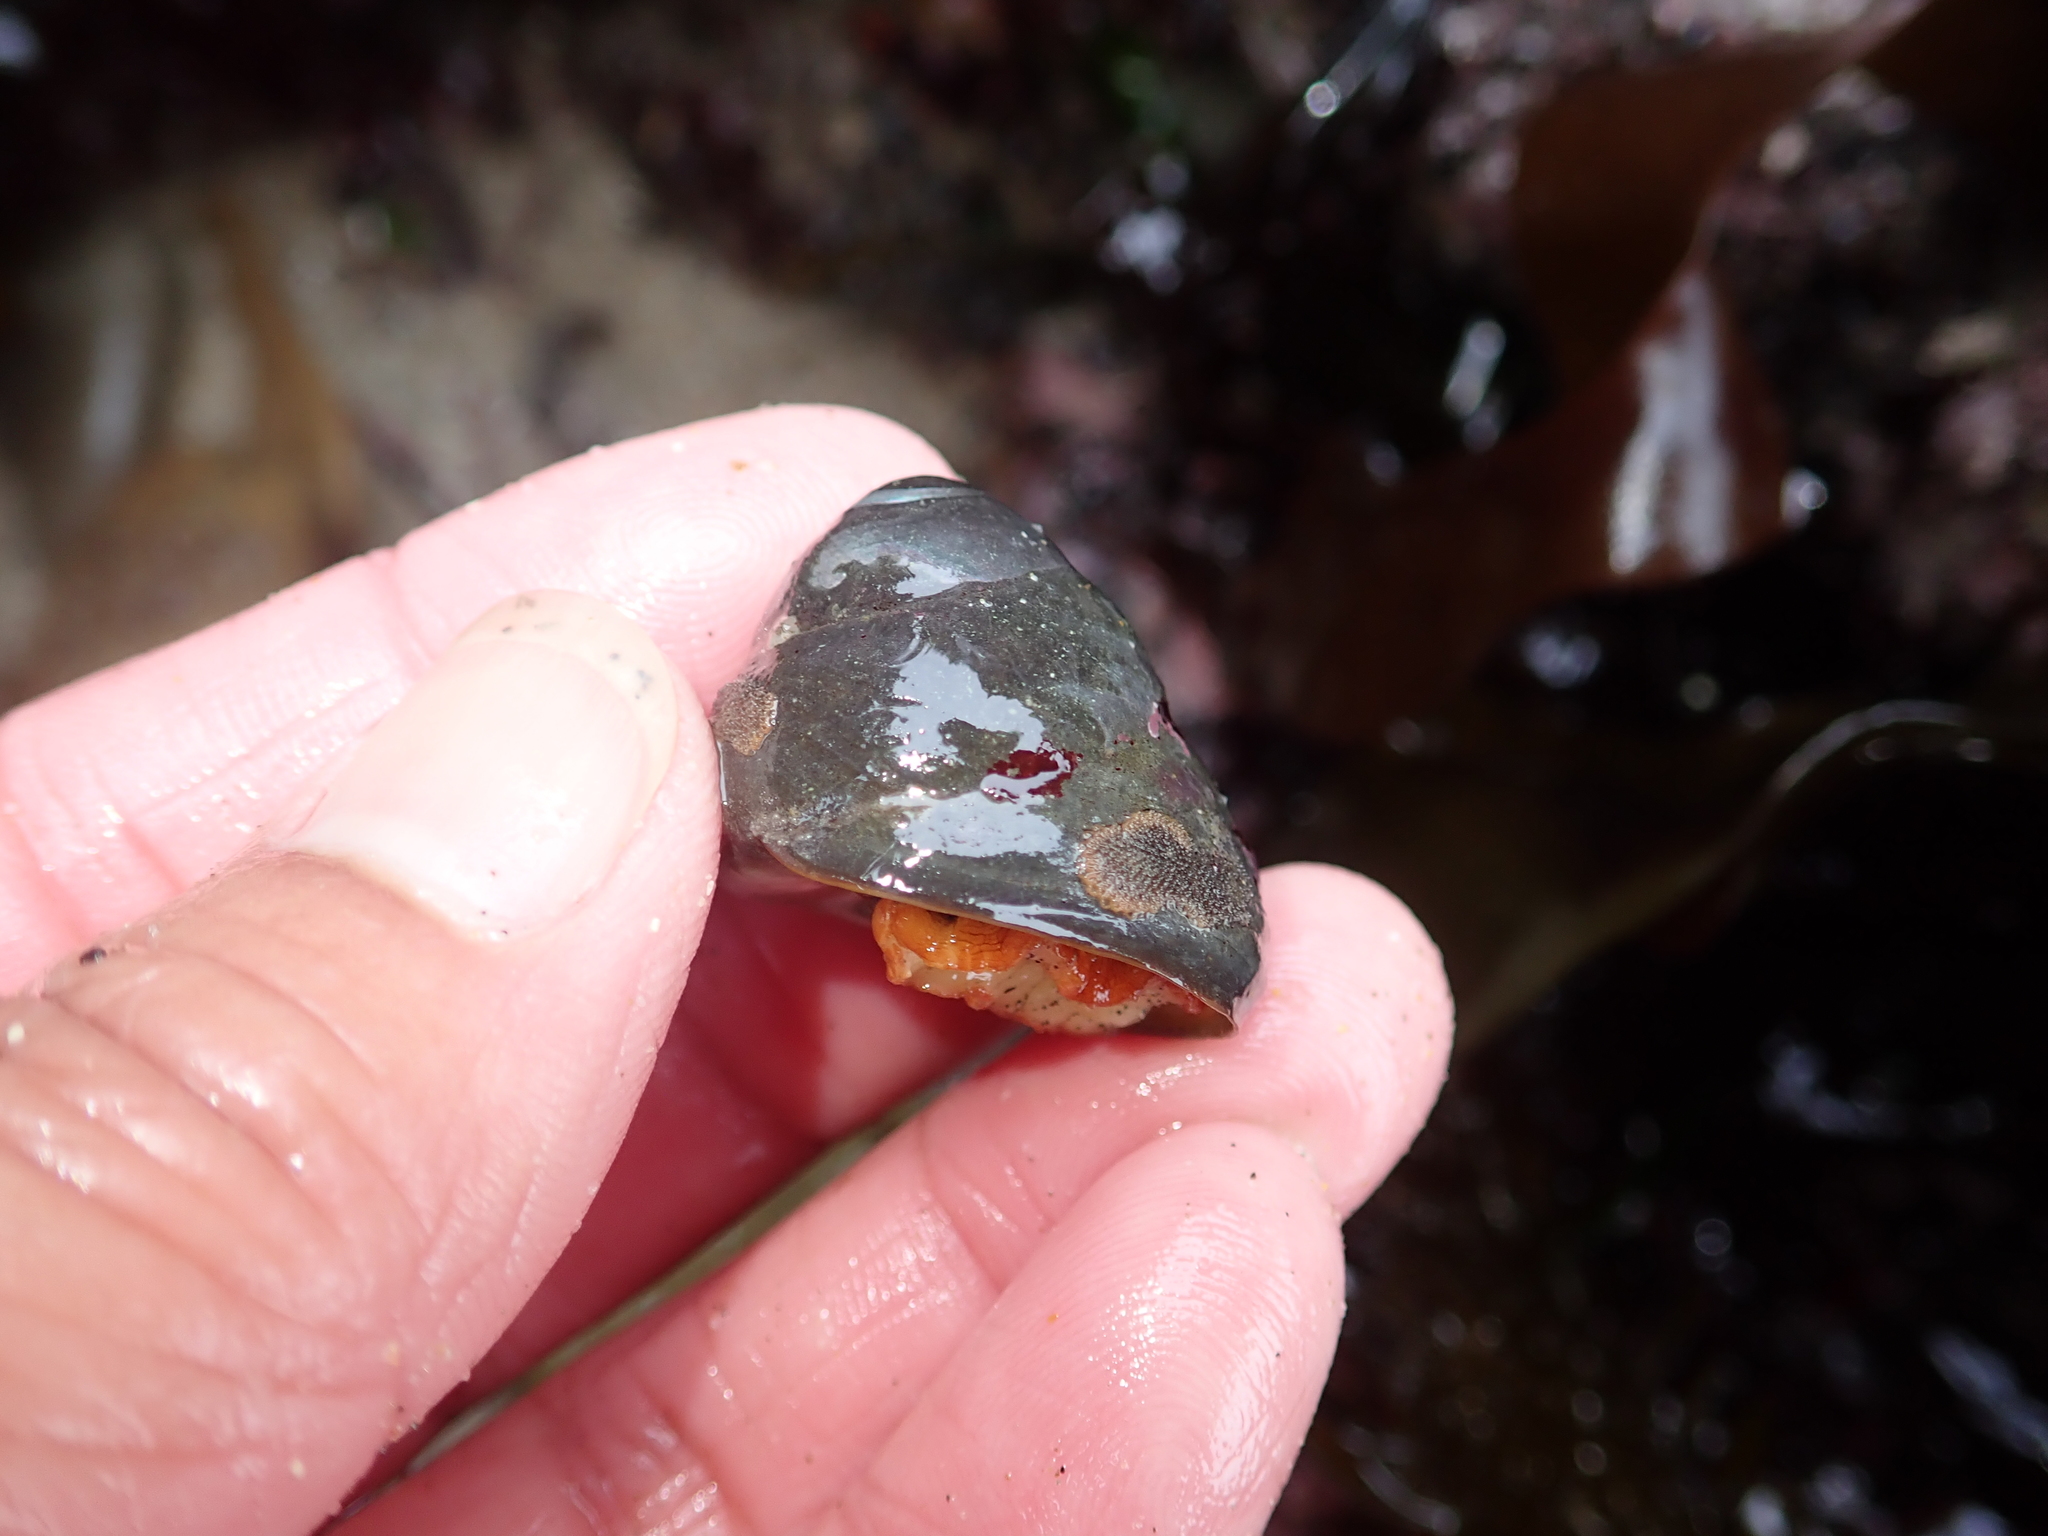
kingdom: Animalia
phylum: Mollusca
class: Gastropoda
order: Trochida
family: Tegulidae
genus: Tegula
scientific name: Tegula brunnea
